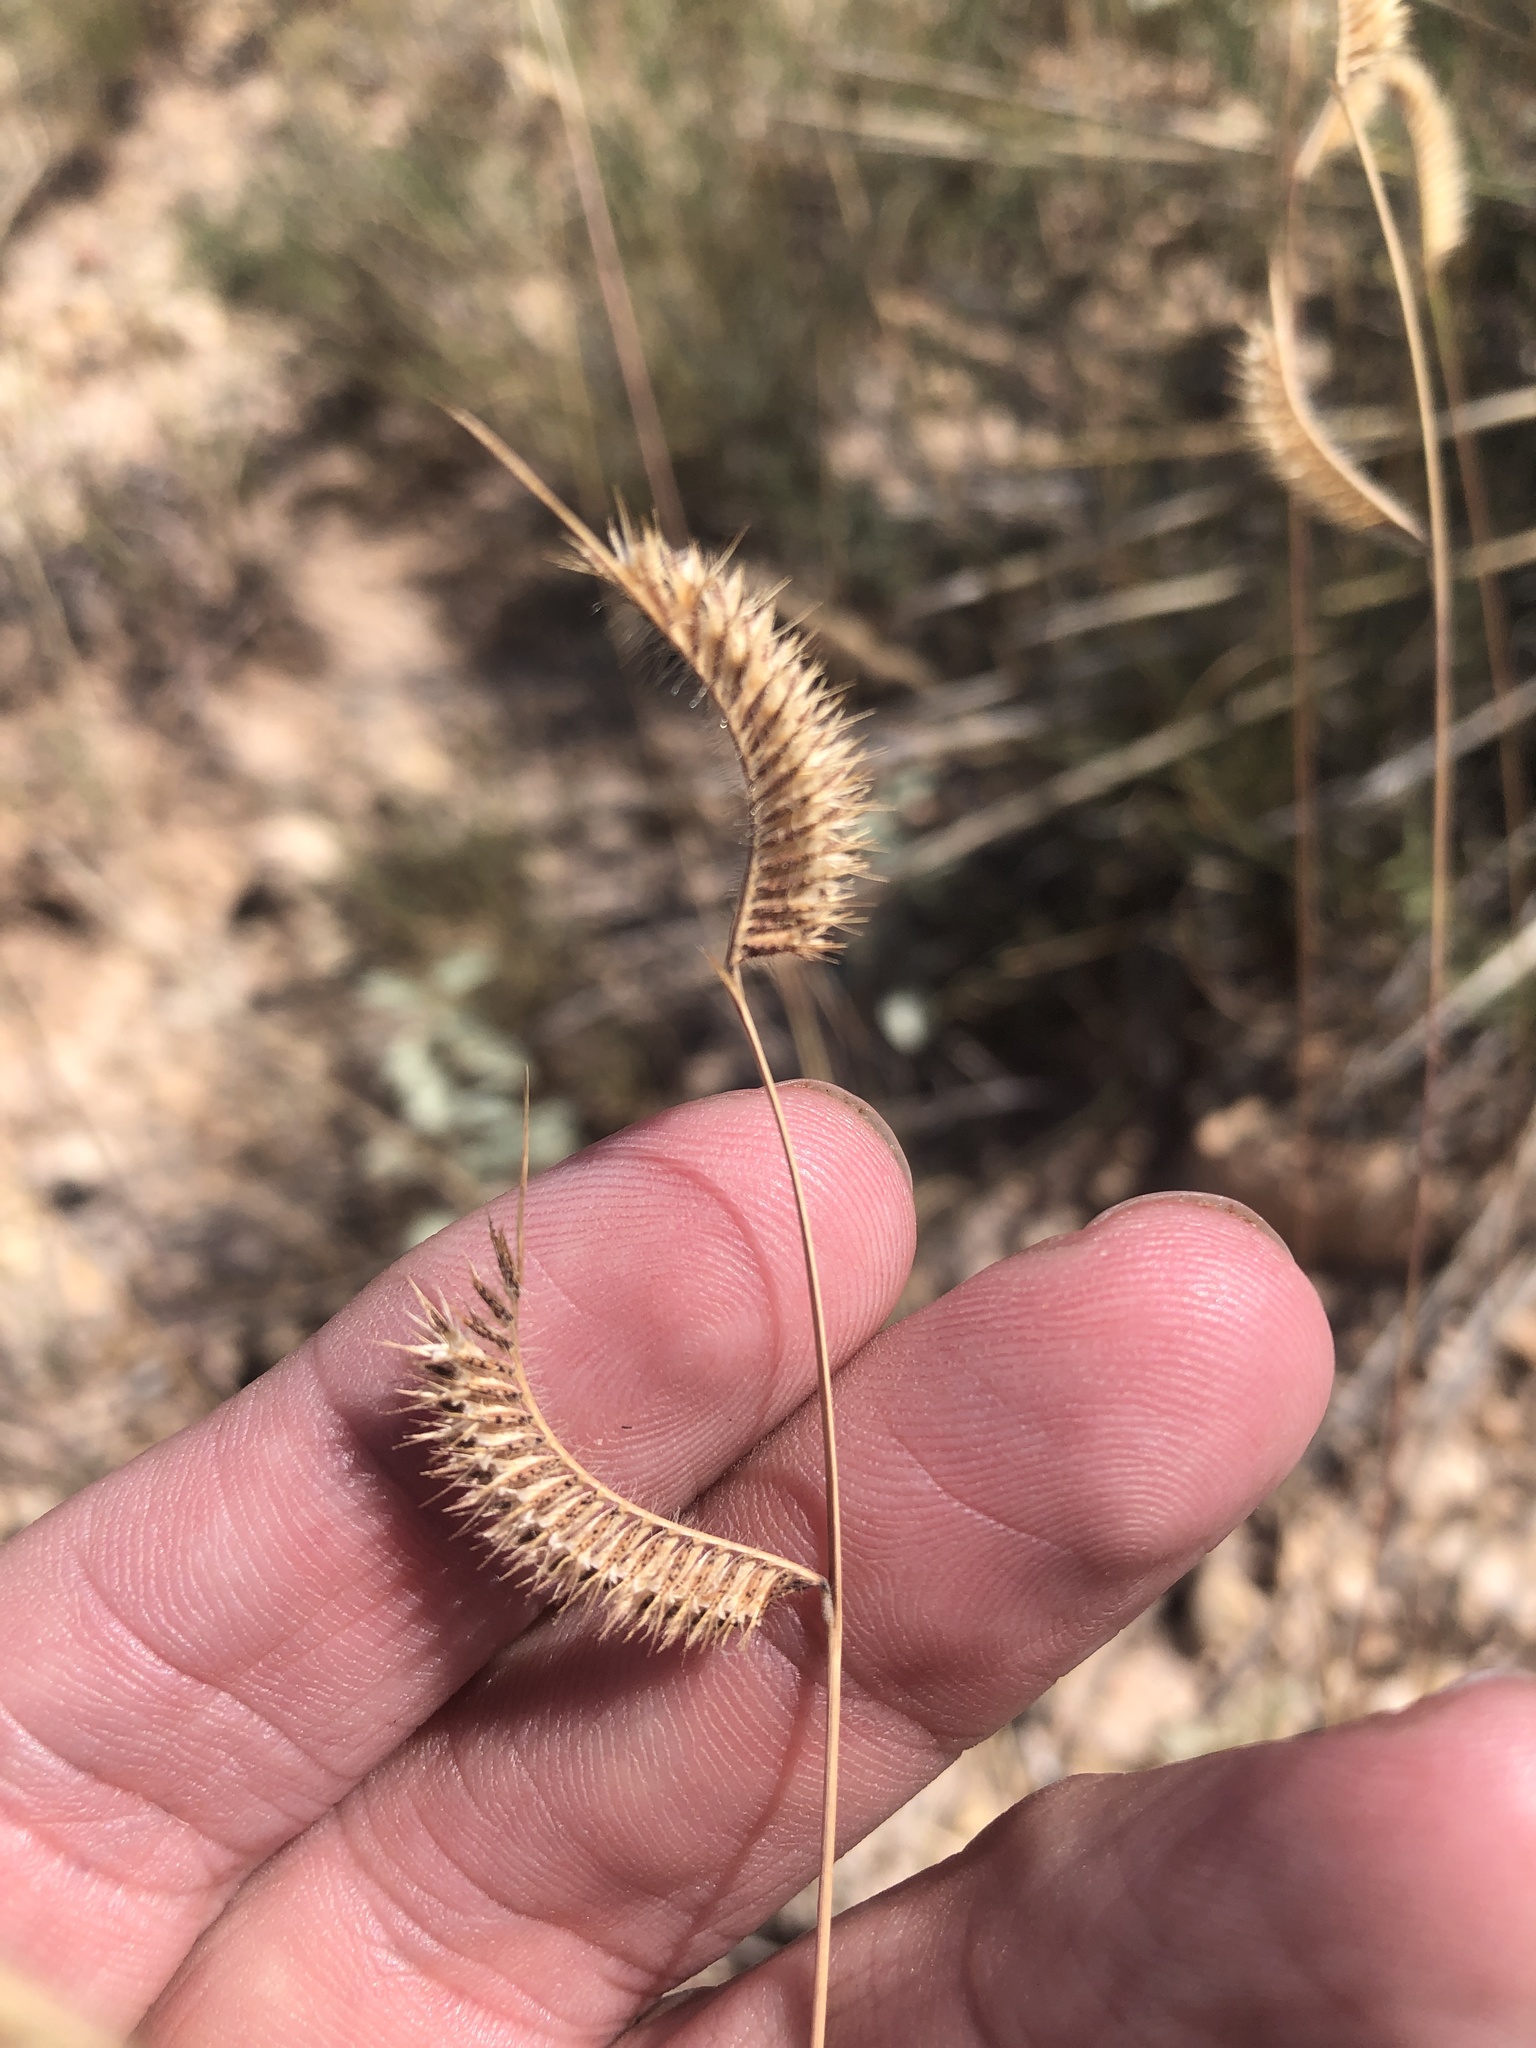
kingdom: Plantae
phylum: Tracheophyta
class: Liliopsida
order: Poales
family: Poaceae
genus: Bouteloua
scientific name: Bouteloua hirsuta
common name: Hairy grama
